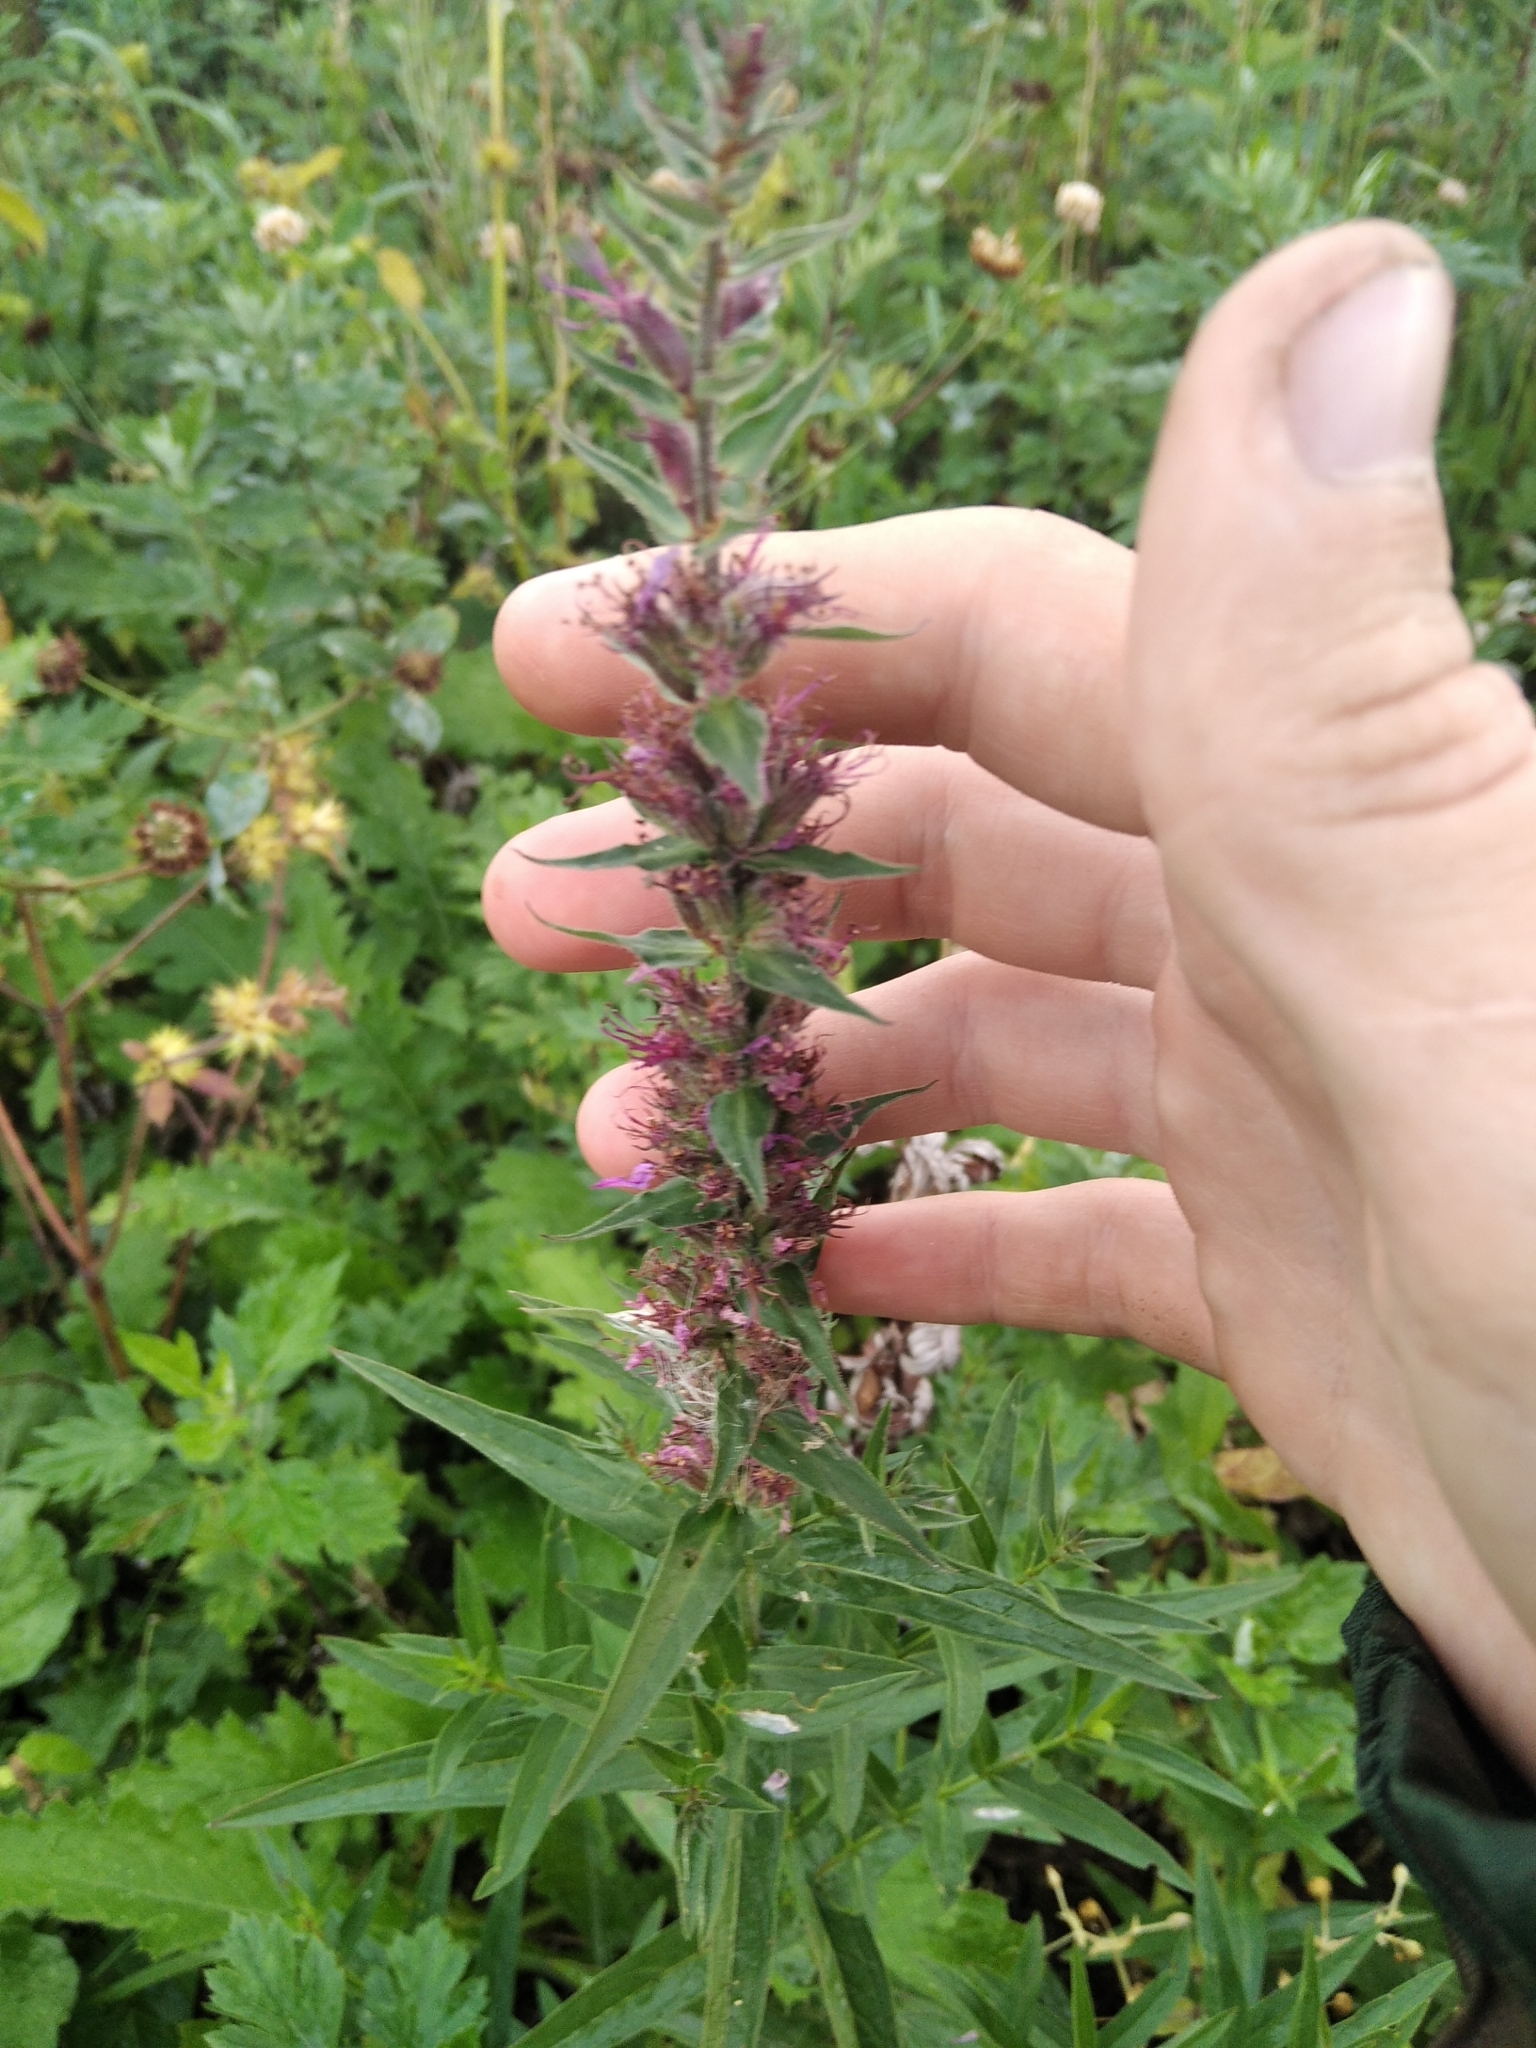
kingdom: Plantae
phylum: Tracheophyta
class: Magnoliopsida
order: Myrtales
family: Lythraceae
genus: Lythrum
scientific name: Lythrum salicaria
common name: Purple loosestrife
